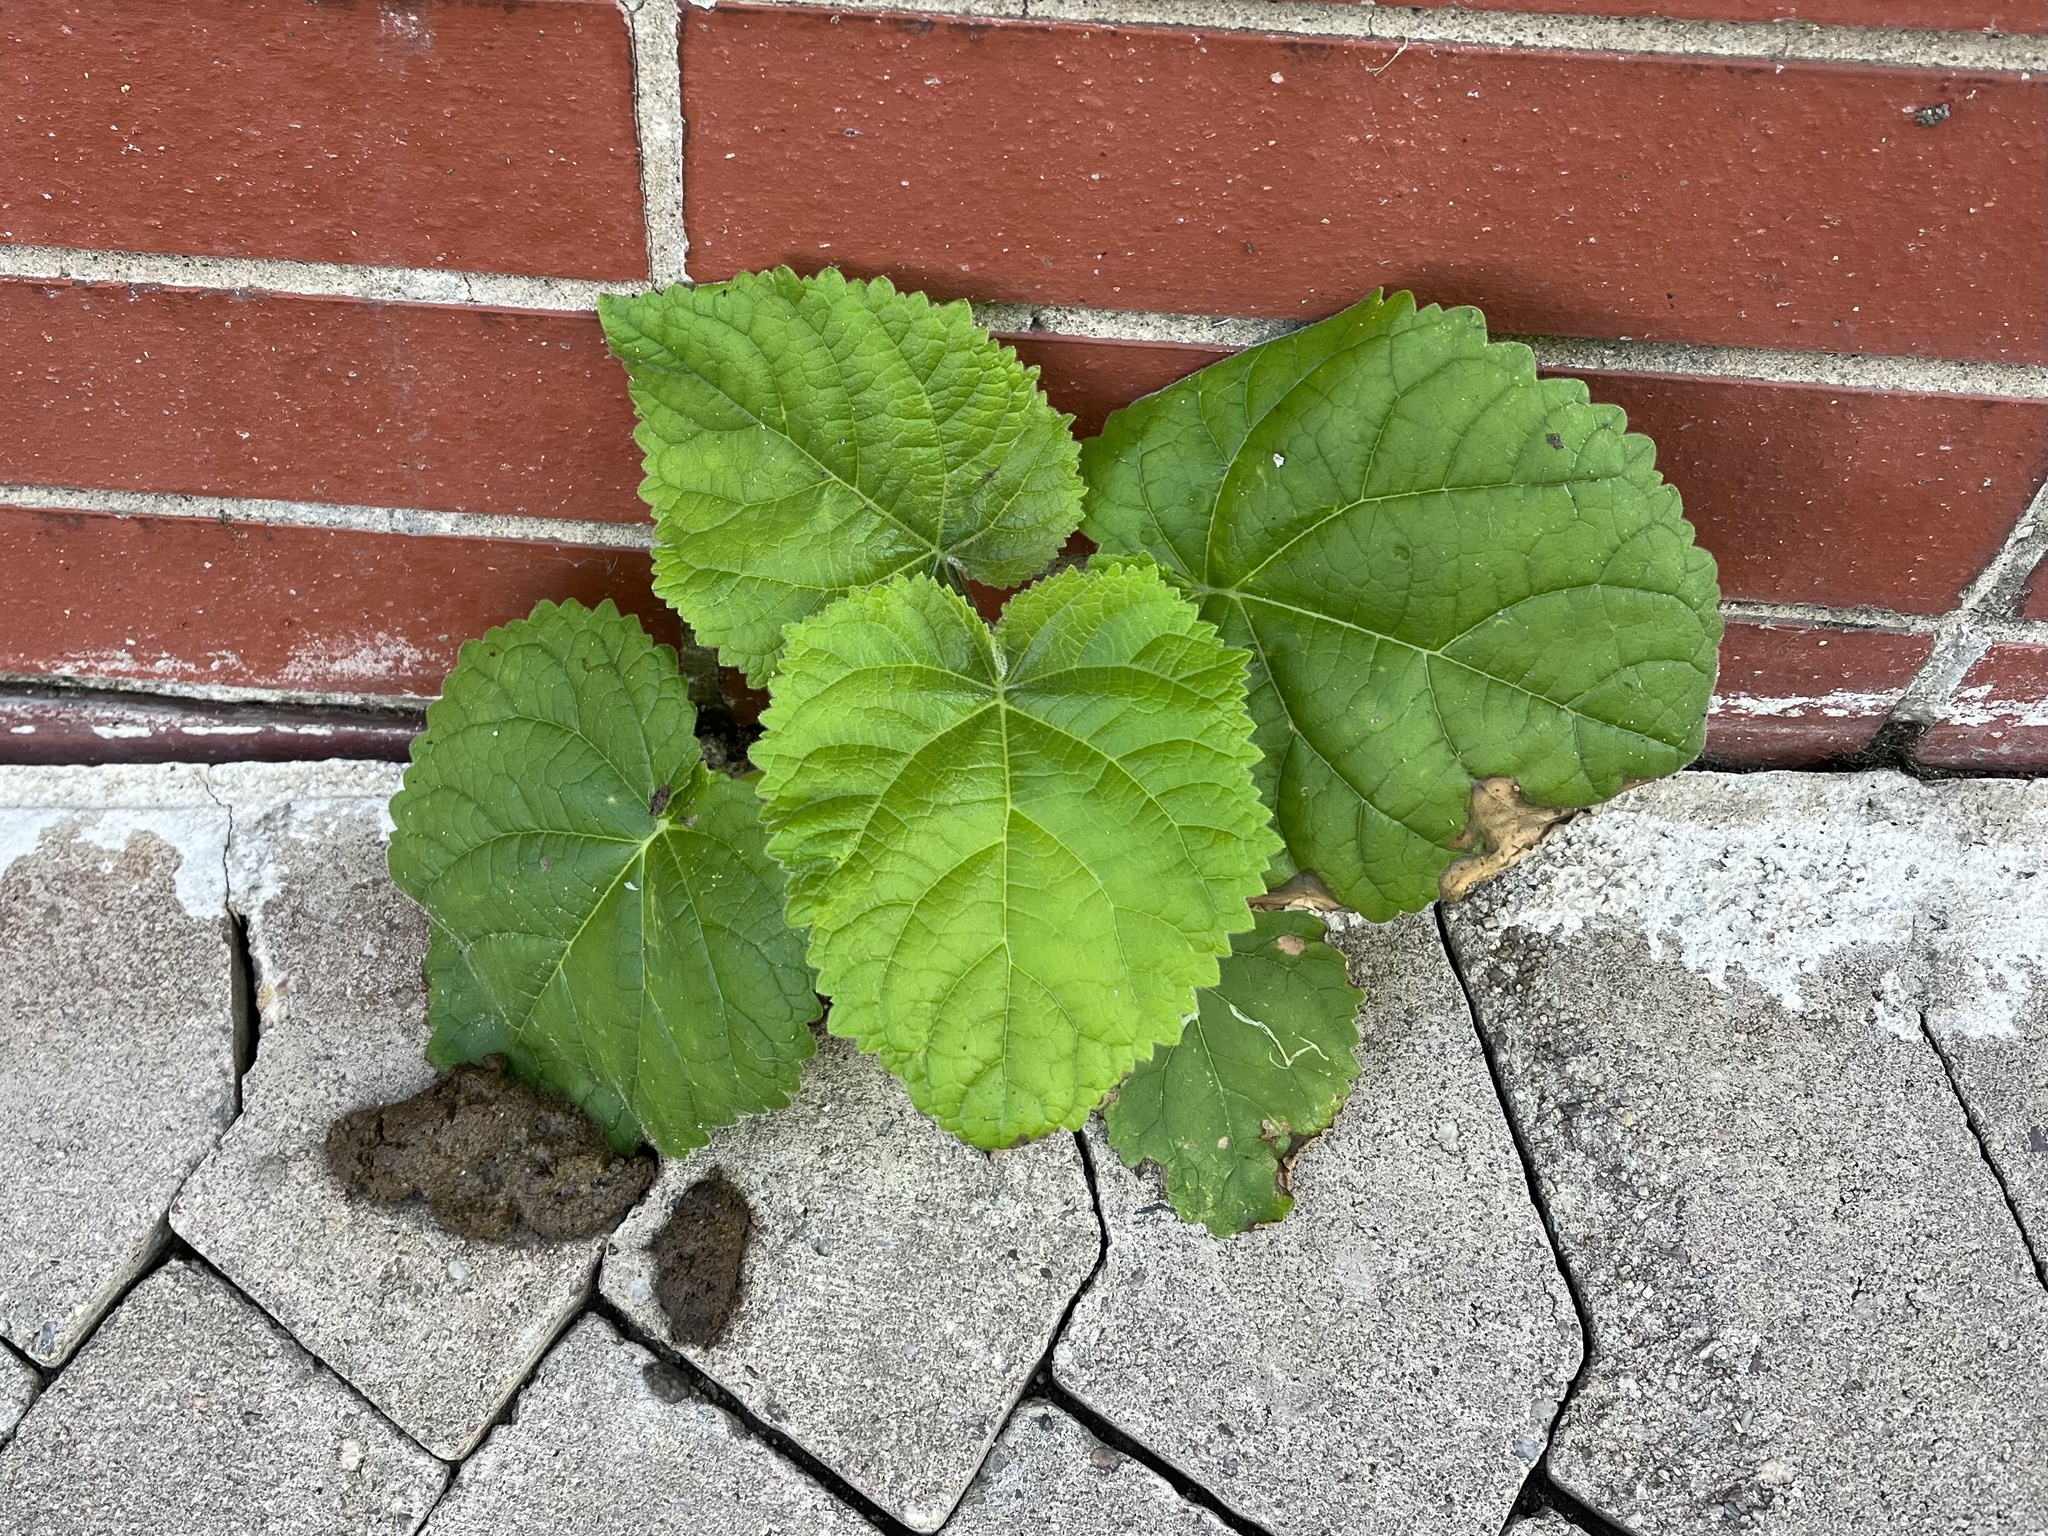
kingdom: Plantae
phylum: Tracheophyta
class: Magnoliopsida
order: Lamiales
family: Paulowniaceae
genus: Paulownia
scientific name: Paulownia tomentosa
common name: Foxglove-tree
